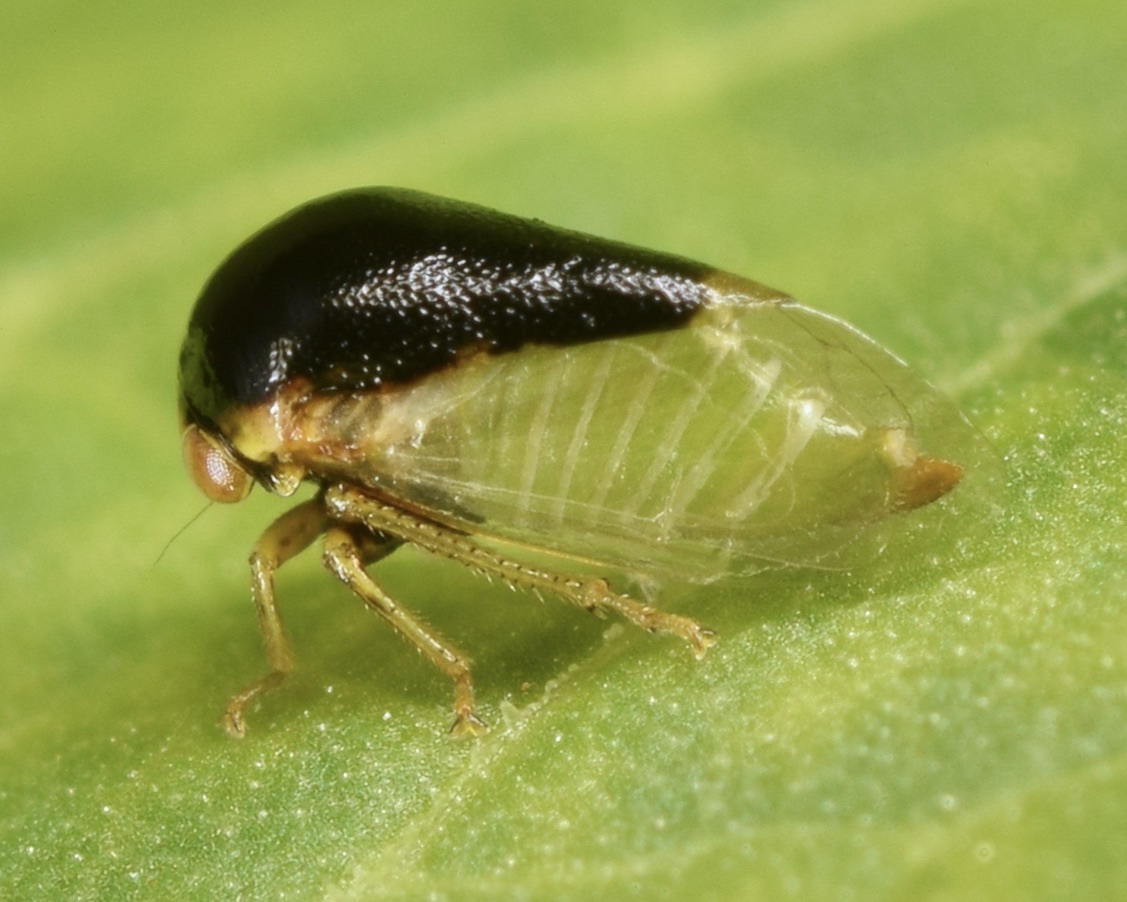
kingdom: Animalia
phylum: Arthropoda
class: Insecta
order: Hemiptera
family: Membracidae
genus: Micrutalis
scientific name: Micrutalis calva
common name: Honeylocust treehopper
